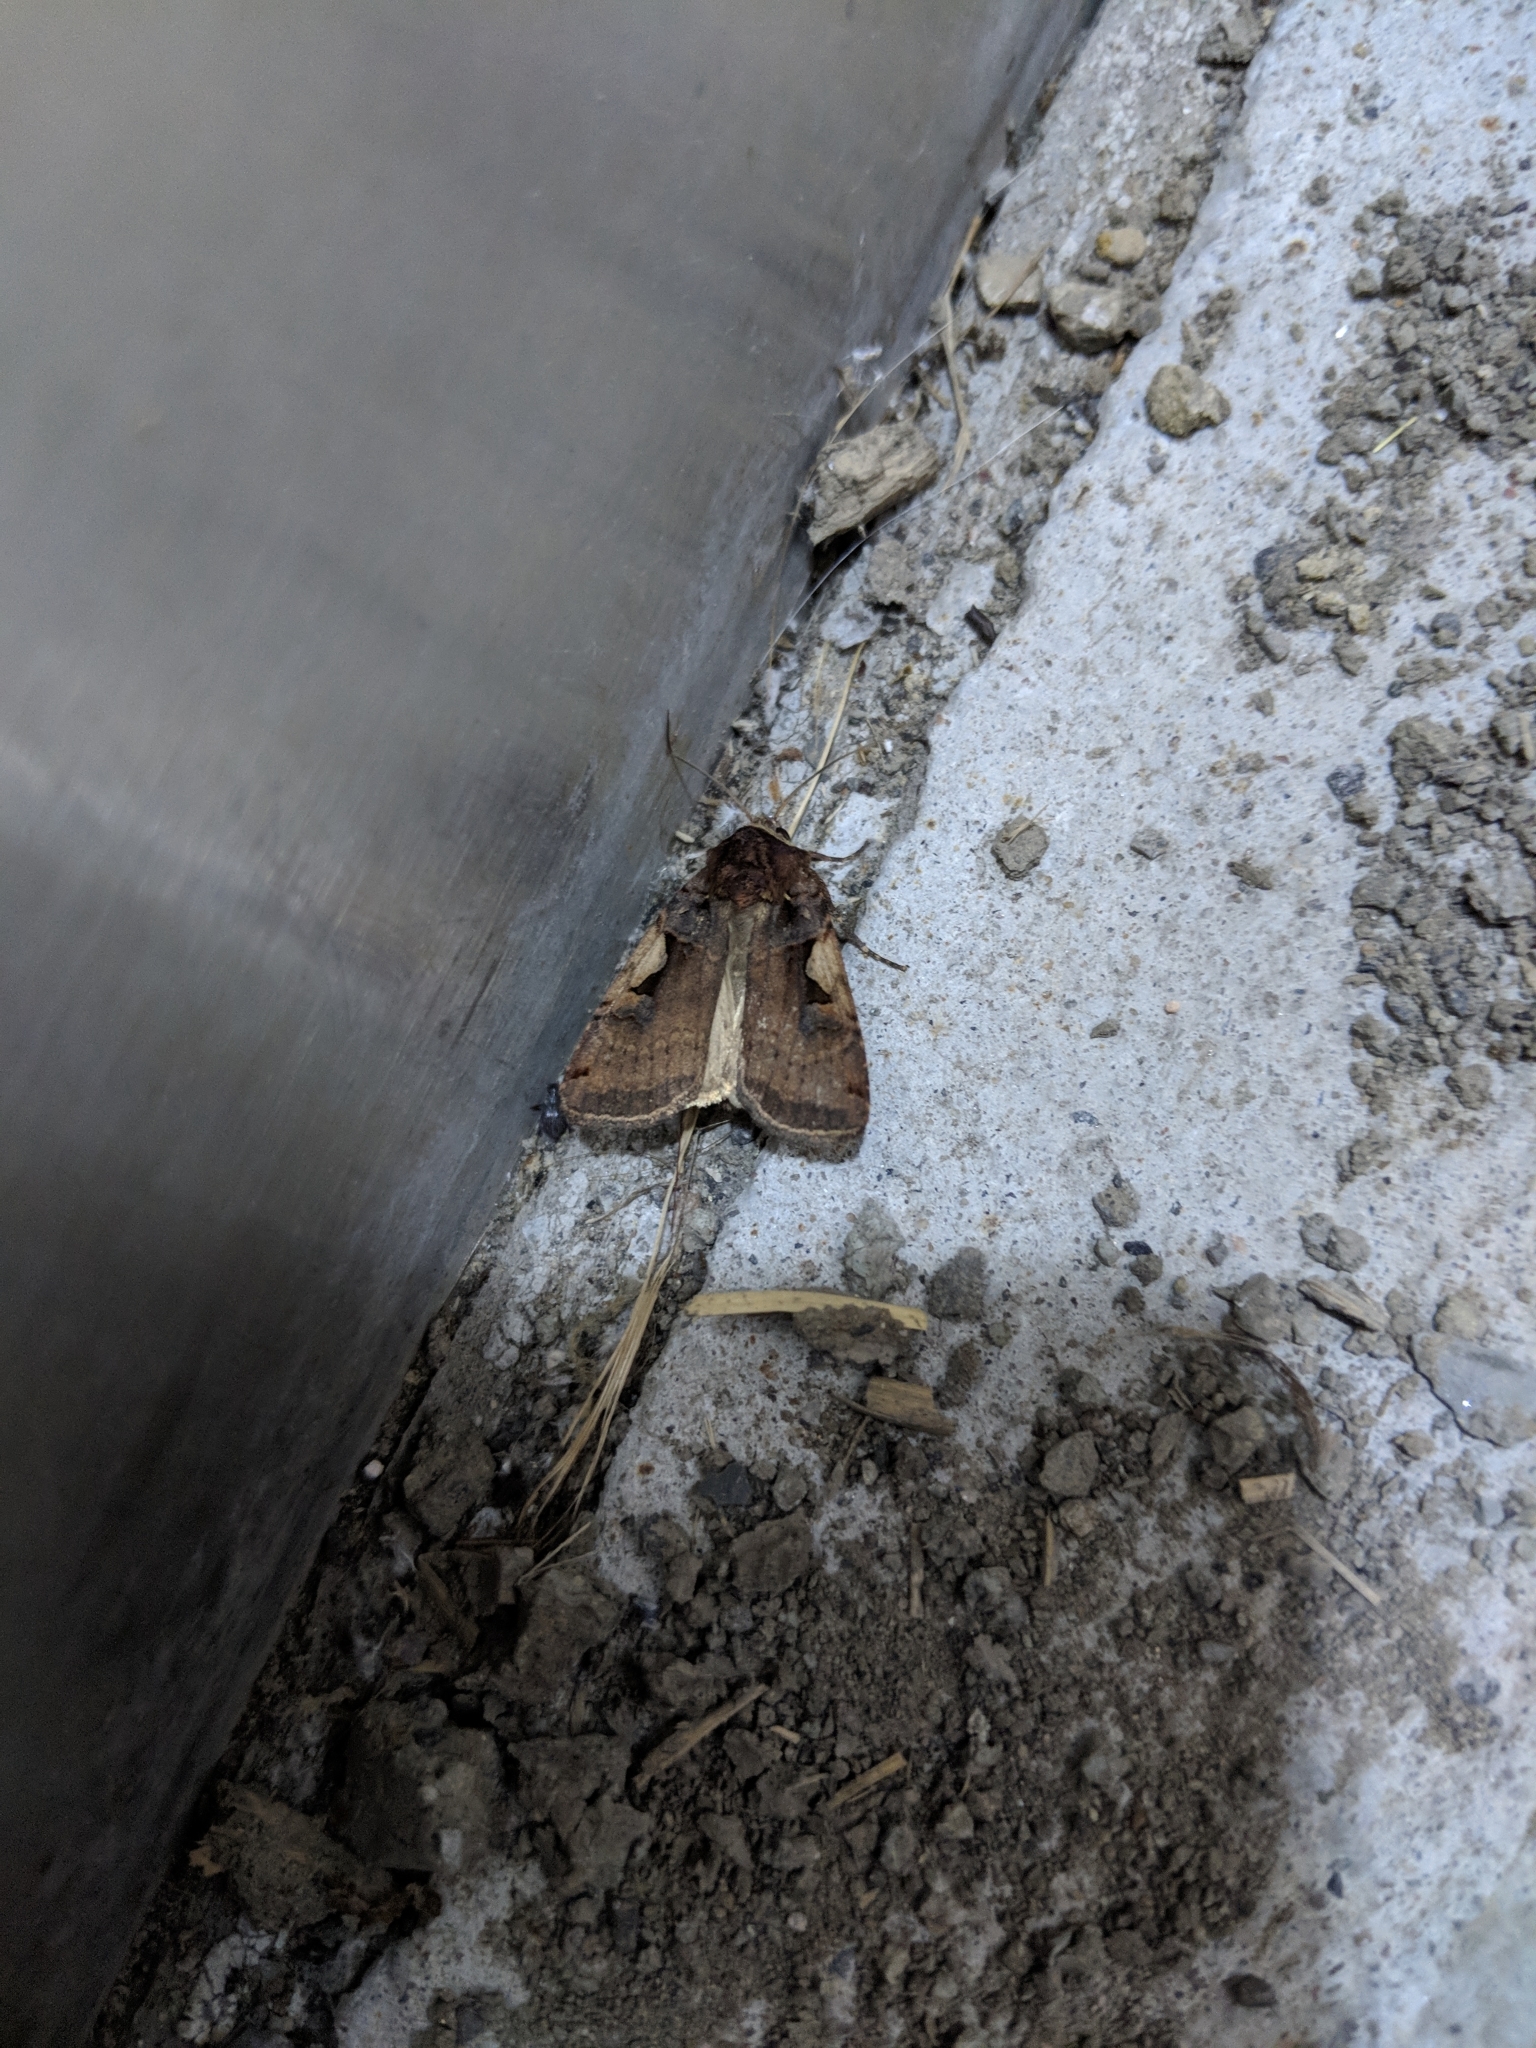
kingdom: Animalia
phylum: Arthropoda
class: Insecta
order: Lepidoptera
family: Noctuidae
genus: Xestia
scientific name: Xestia c-nigrum
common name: Setaceous hebrew character
